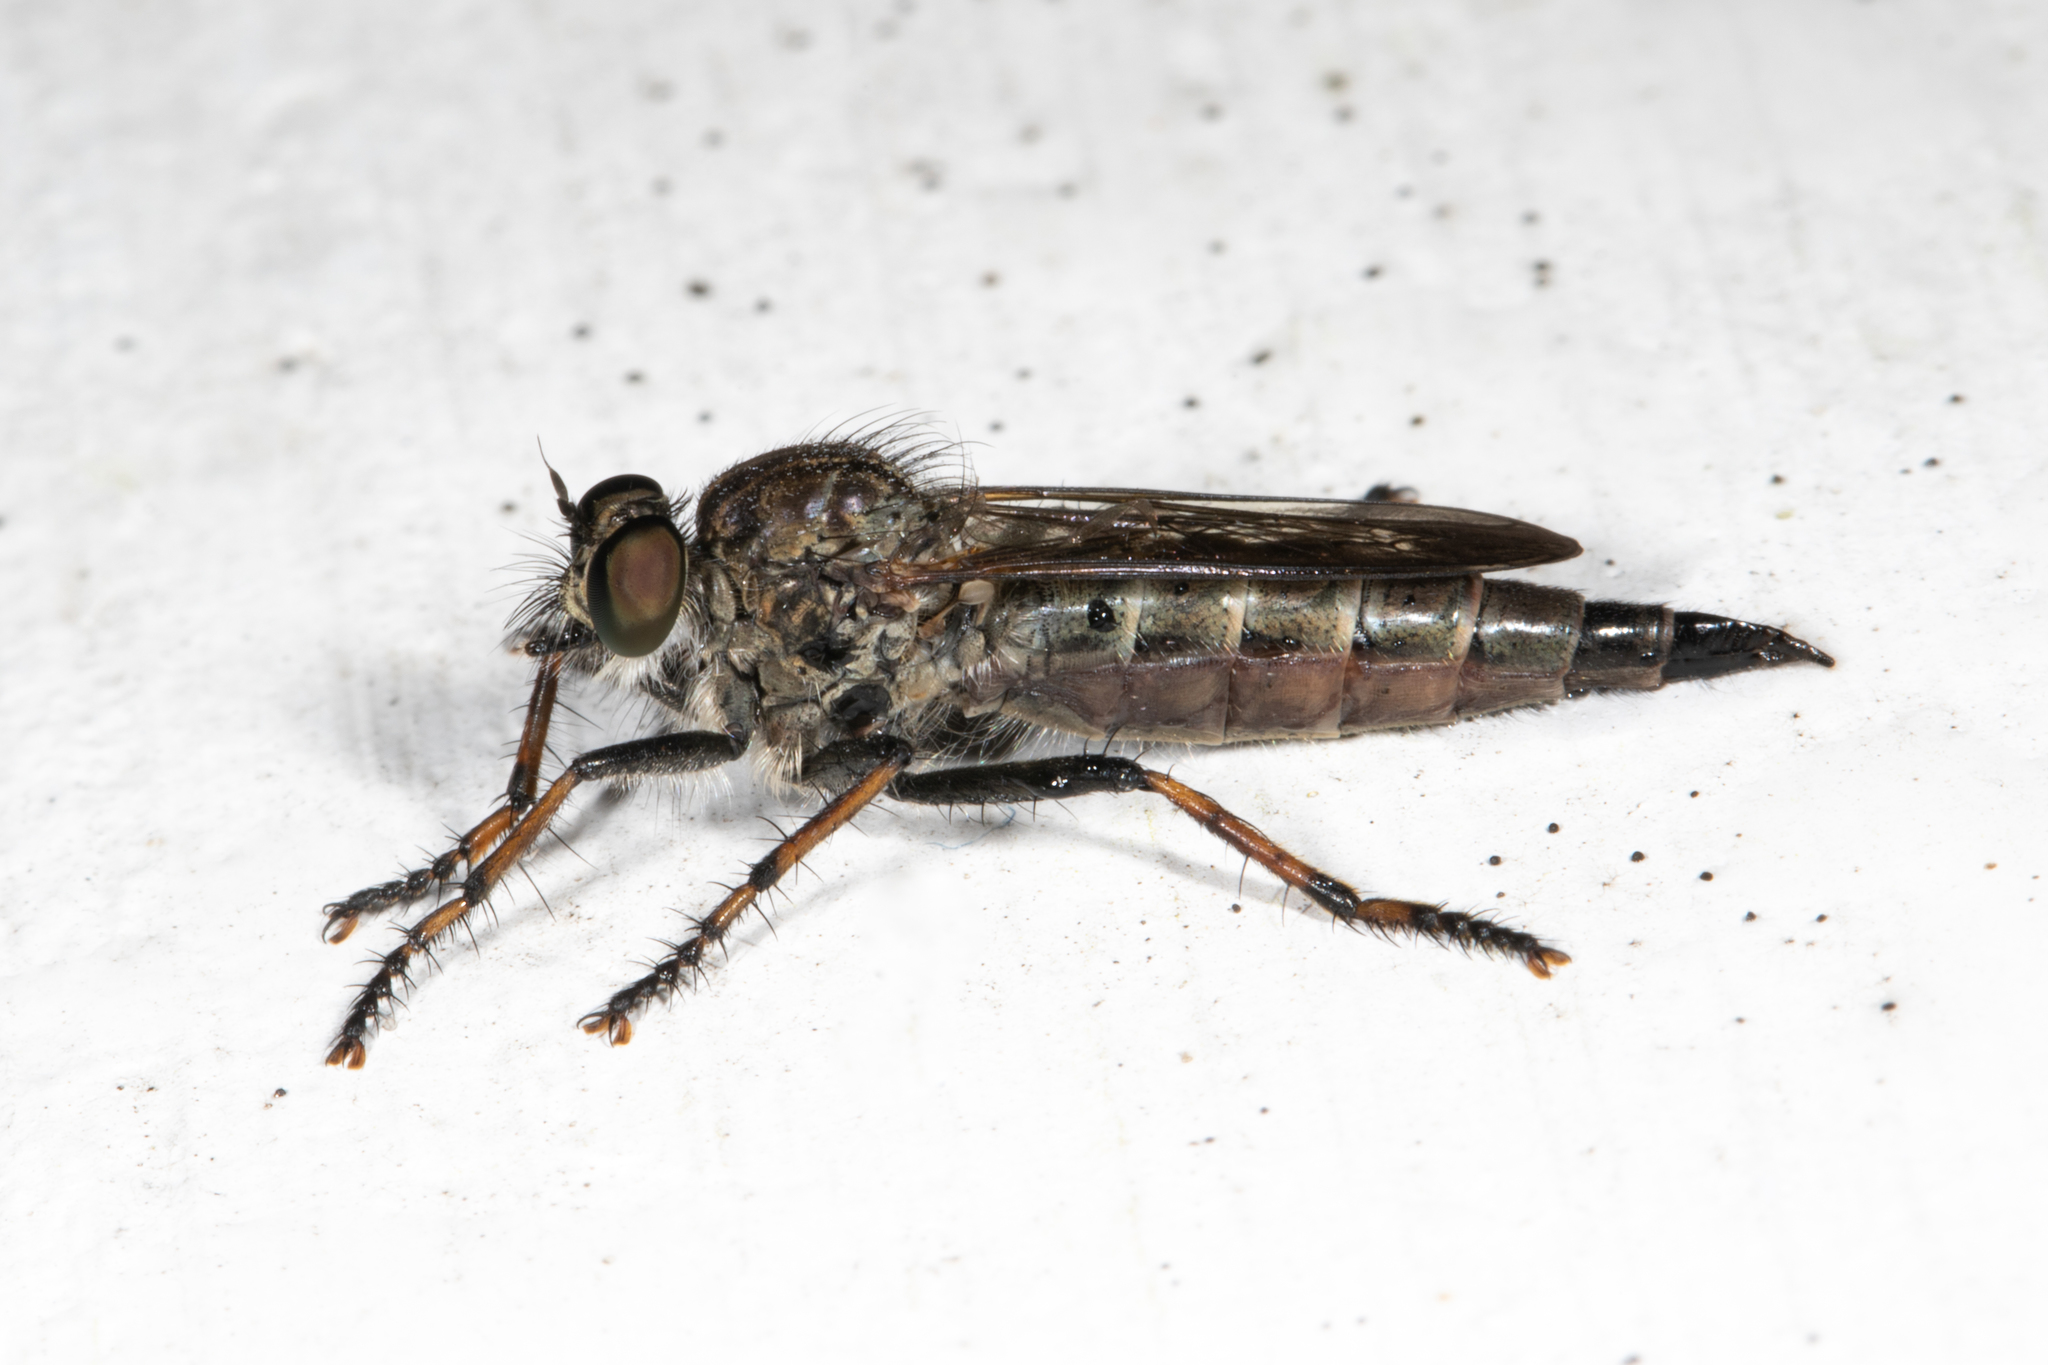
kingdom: Animalia
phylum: Arthropoda
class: Insecta
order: Diptera
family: Asilidae
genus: Machimus
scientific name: Machimus sadyates
